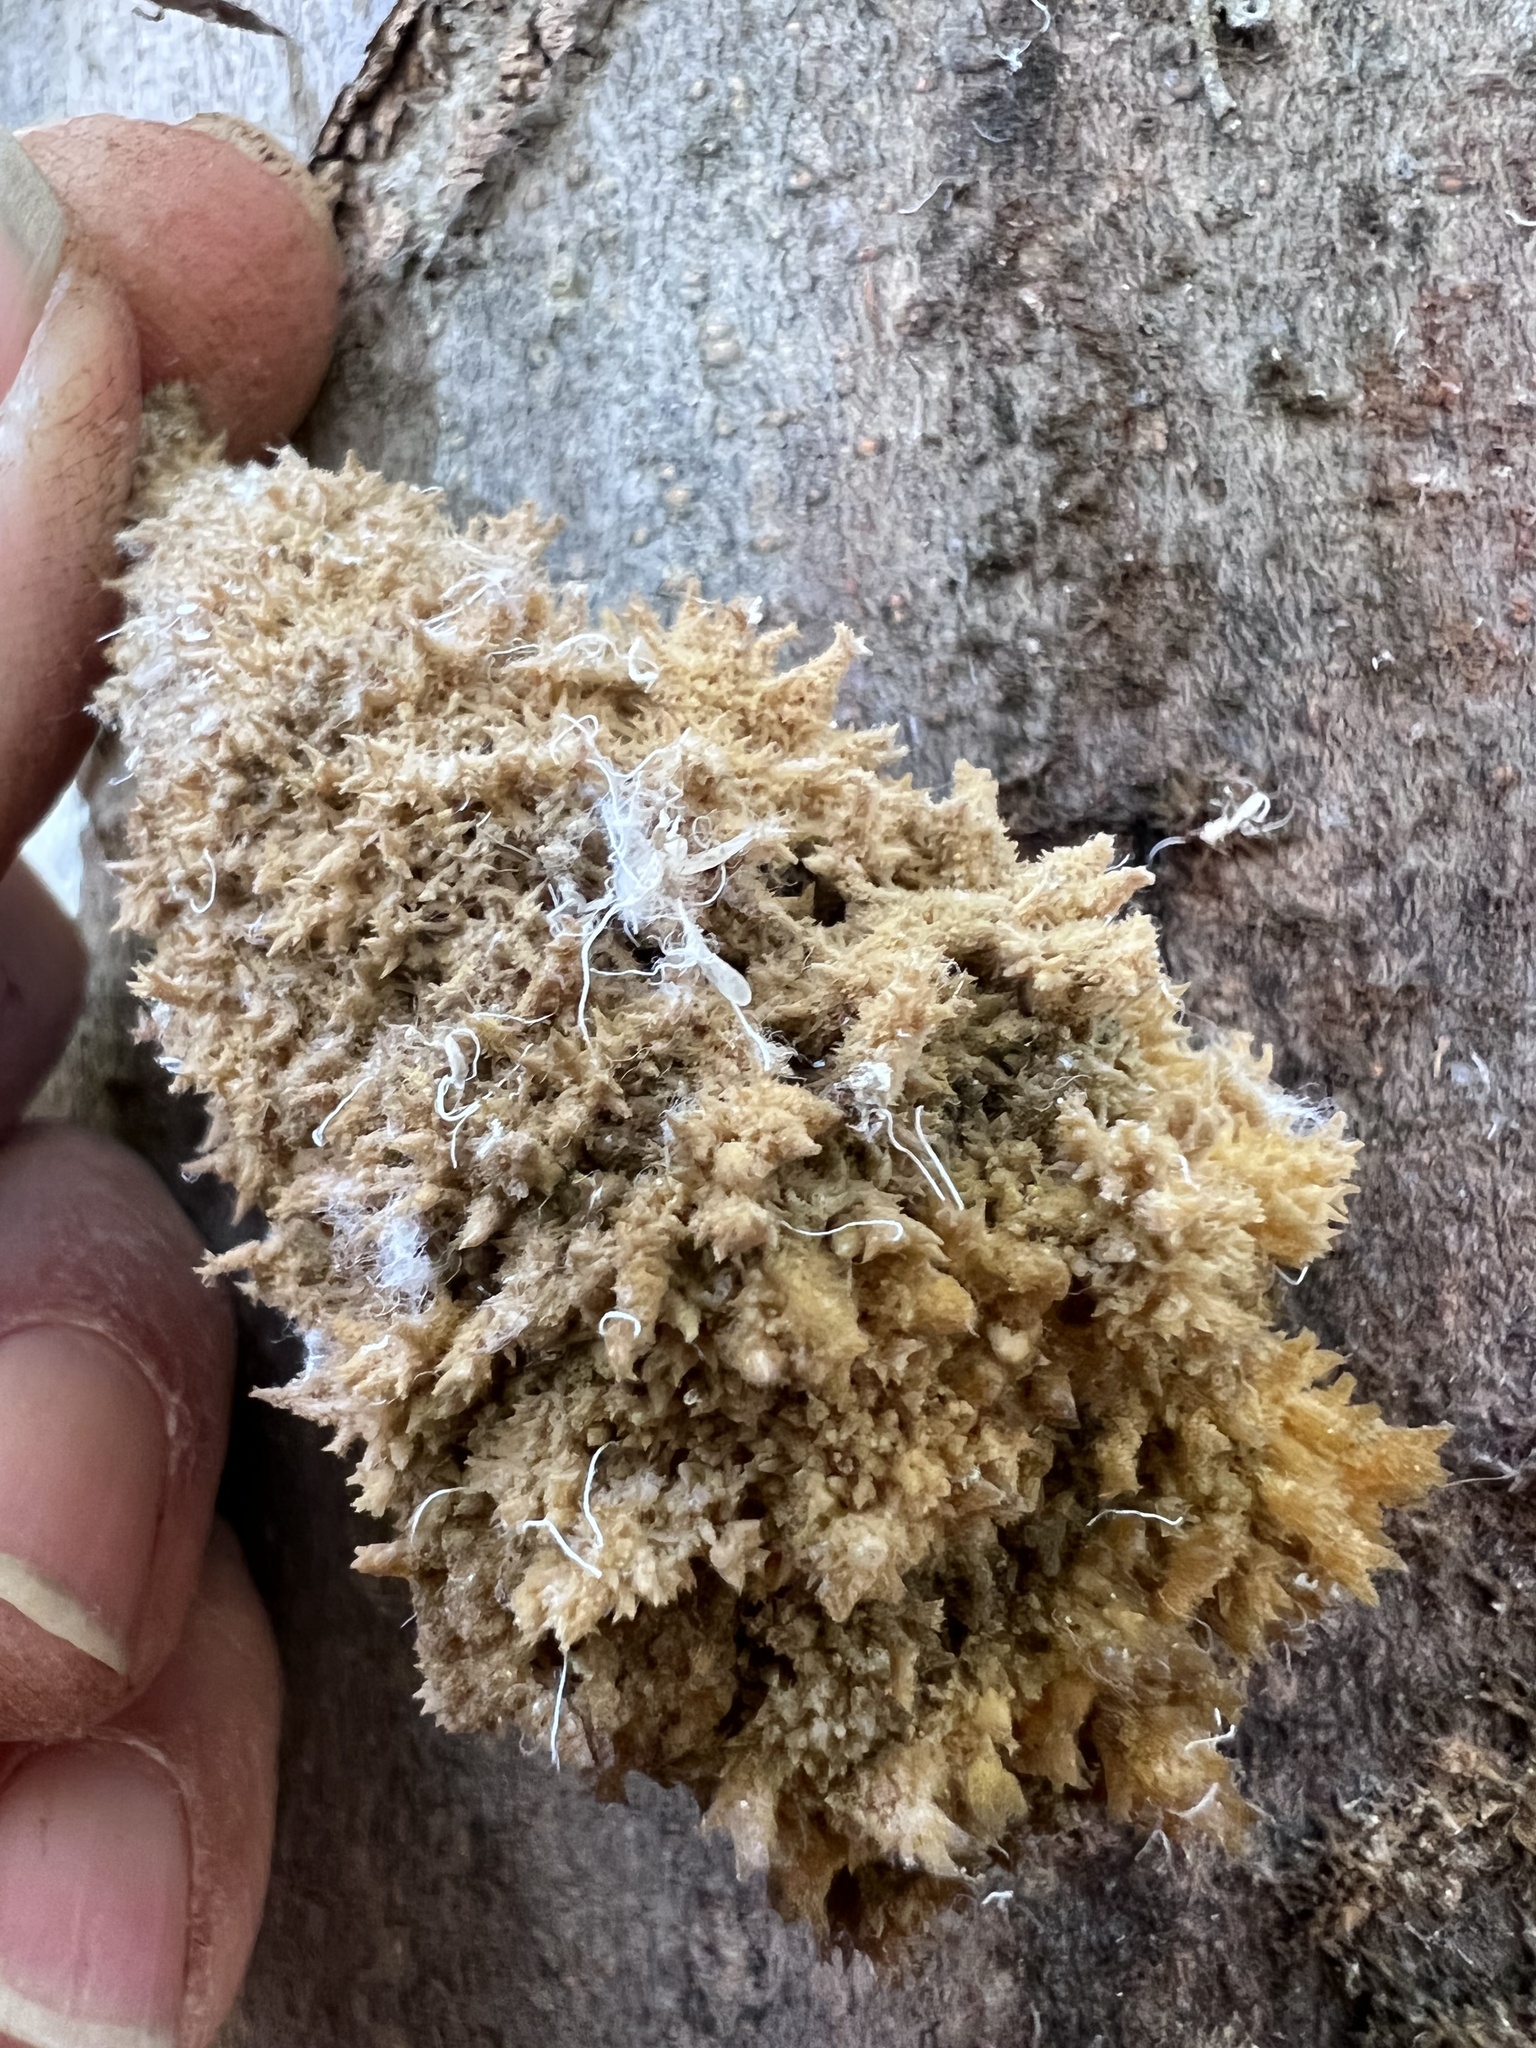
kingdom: Fungi
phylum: Ascomycota
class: Dothideomycetes
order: Capnodiales
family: Capnodiaceae
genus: Scorias
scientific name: Scorias spongiosa
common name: Black sooty mold
